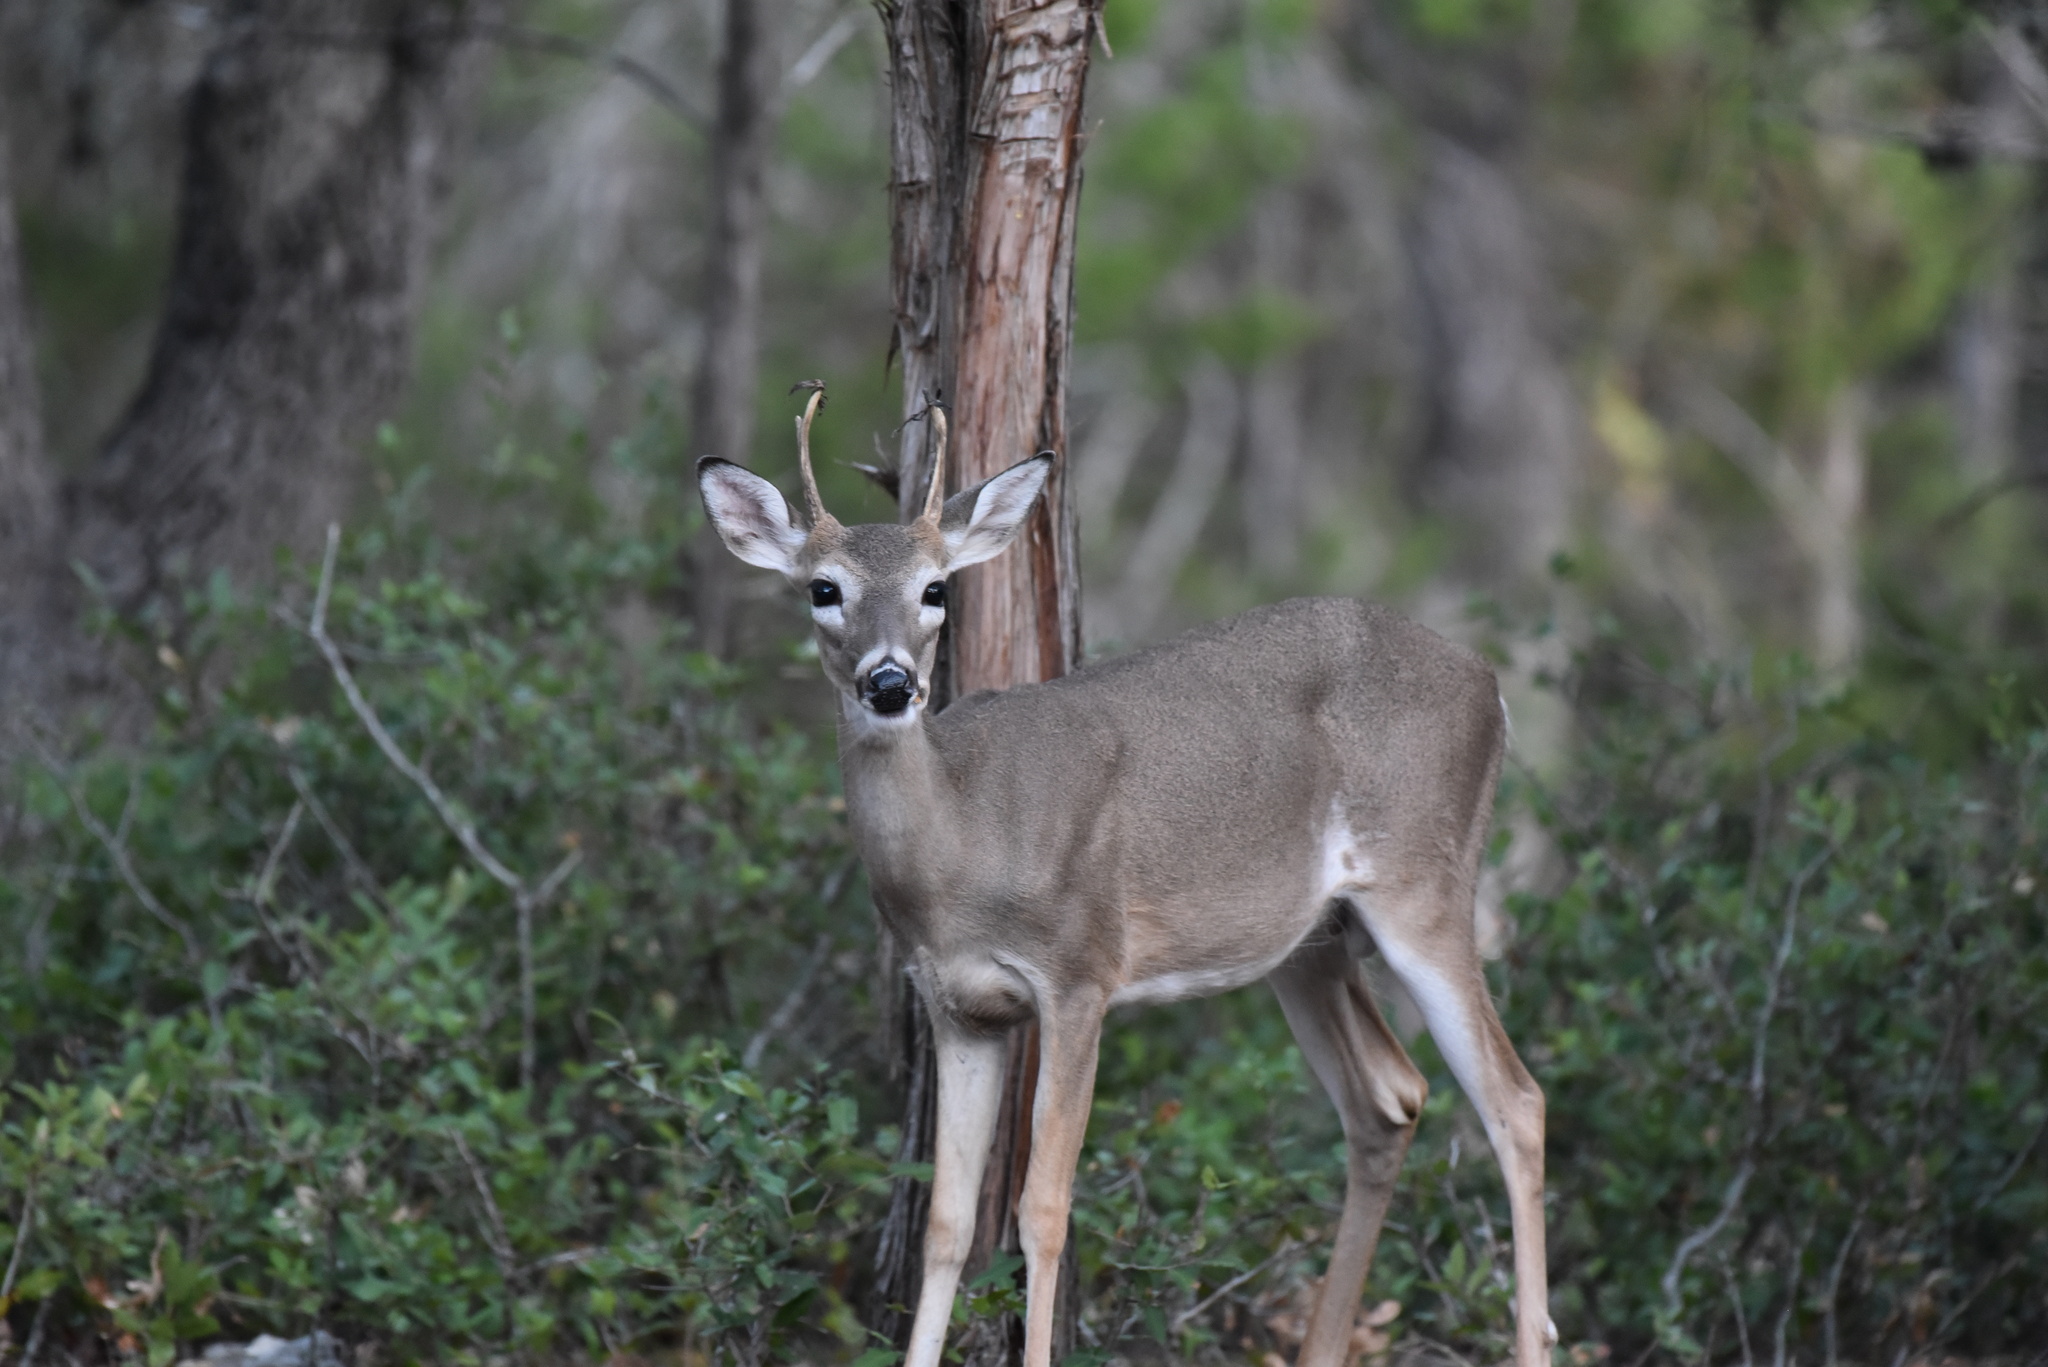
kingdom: Animalia
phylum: Chordata
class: Mammalia
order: Artiodactyla
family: Cervidae
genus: Odocoileus
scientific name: Odocoileus virginianus
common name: White-tailed deer
